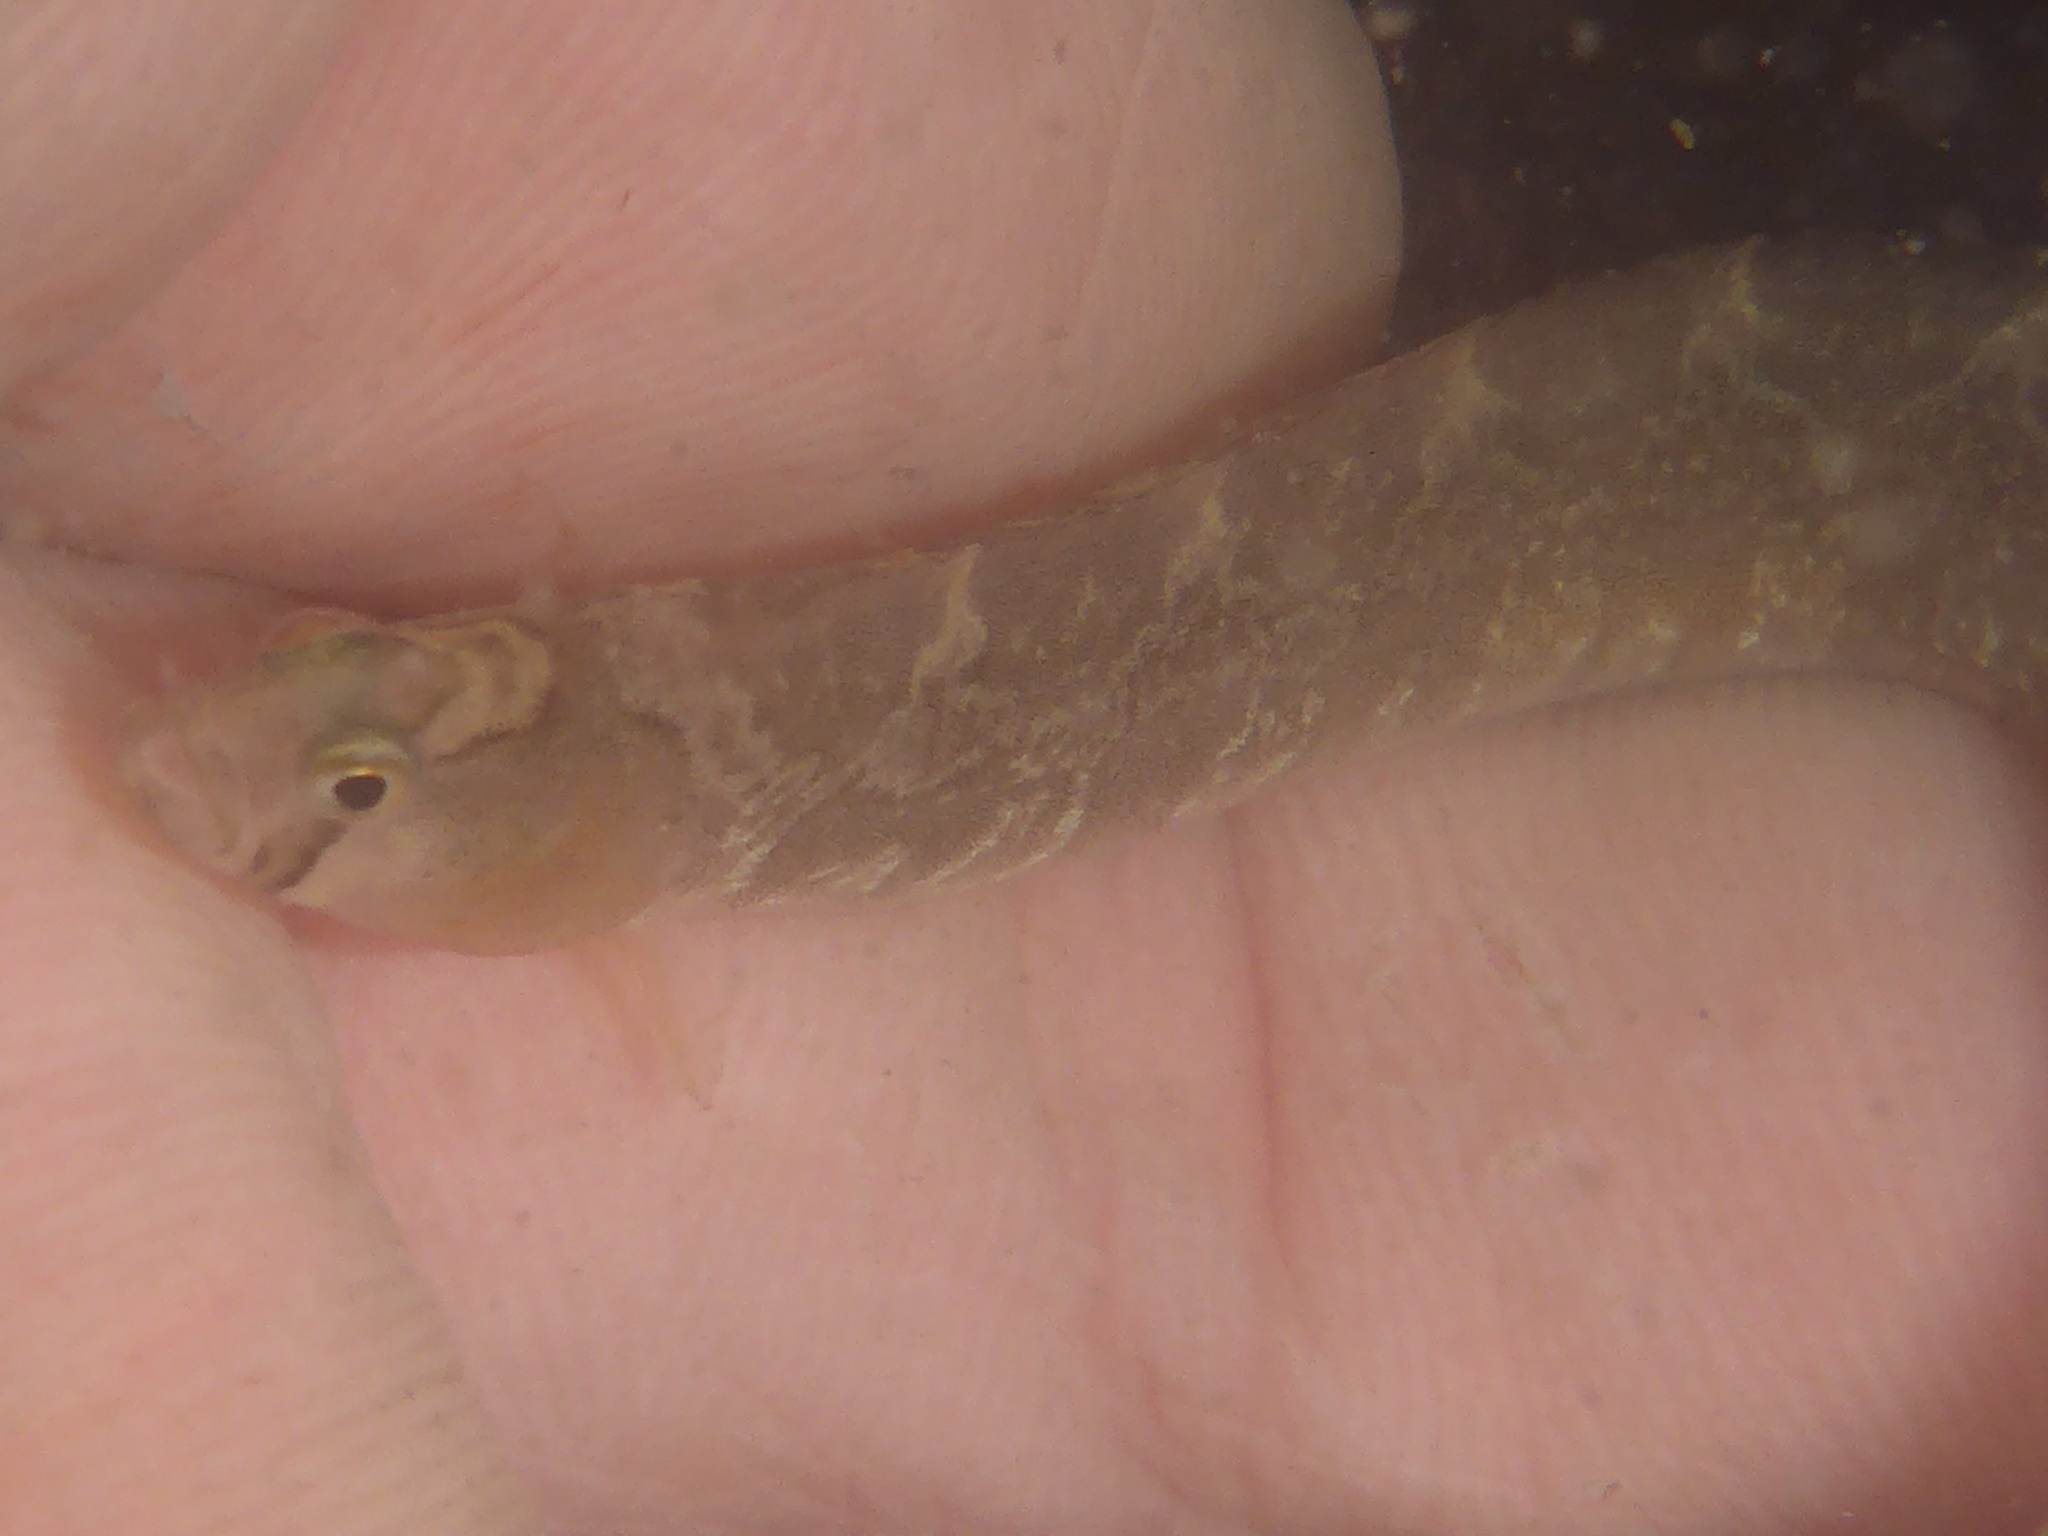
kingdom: Animalia
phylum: Chordata
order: Perciformes
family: Pholidae
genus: Pholis
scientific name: Pholis ornata
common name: Saddleback gunnel
